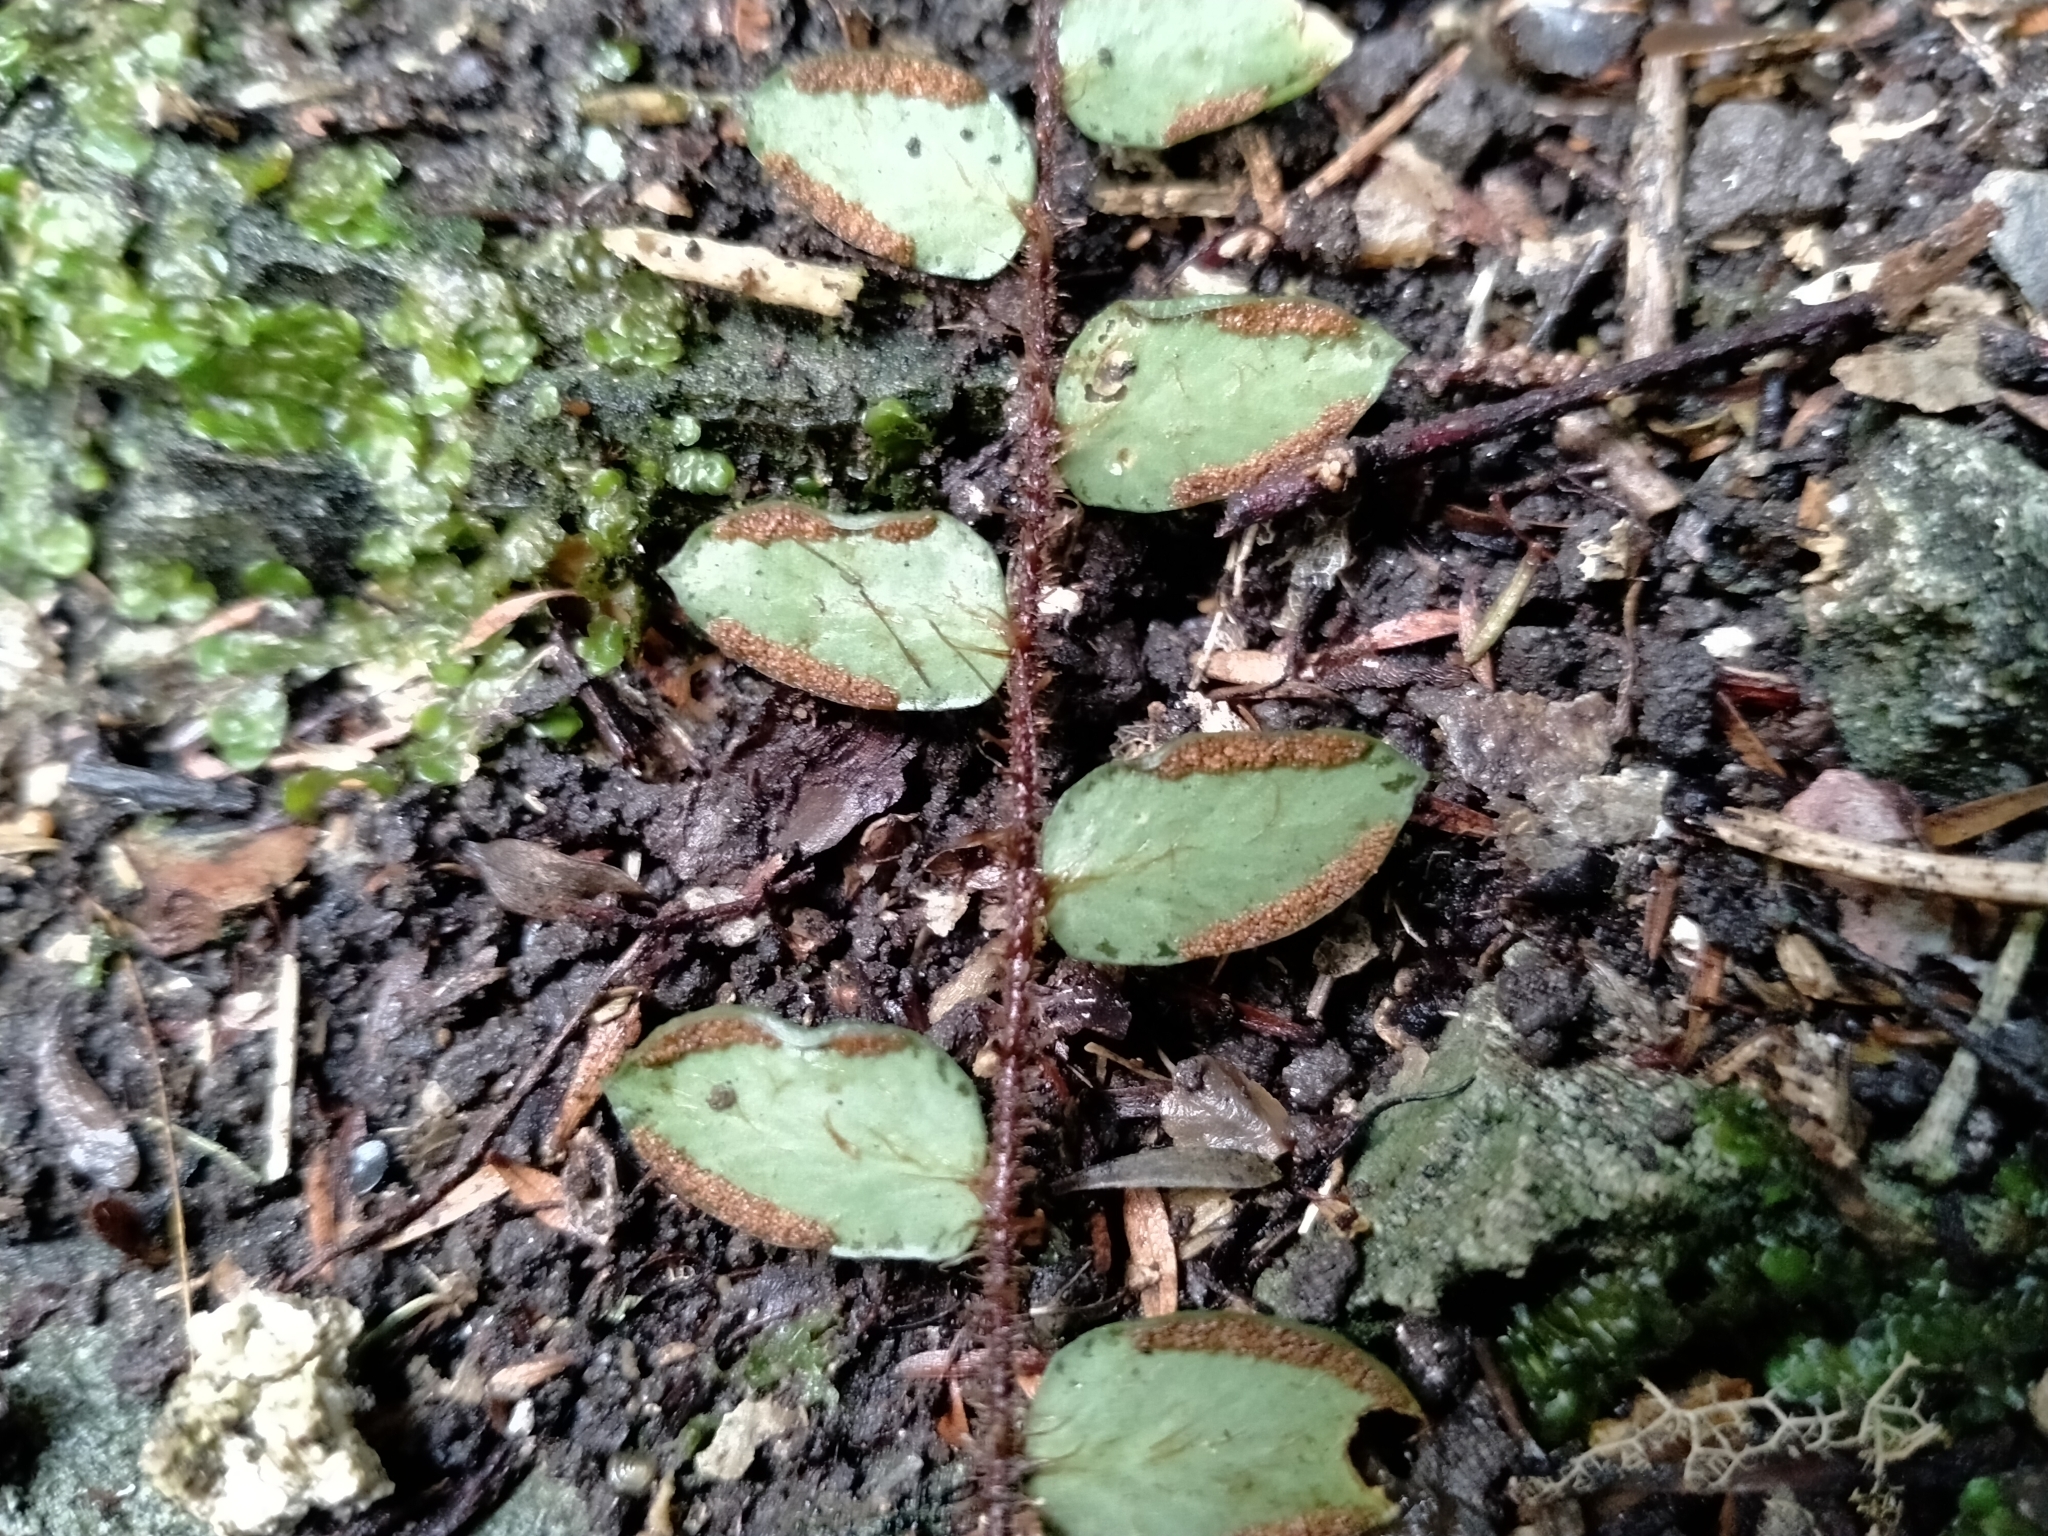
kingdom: Plantae
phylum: Tracheophyta
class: Polypodiopsida
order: Polypodiales
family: Pteridaceae
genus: Pellaea
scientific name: Pellaea rotundifolia
